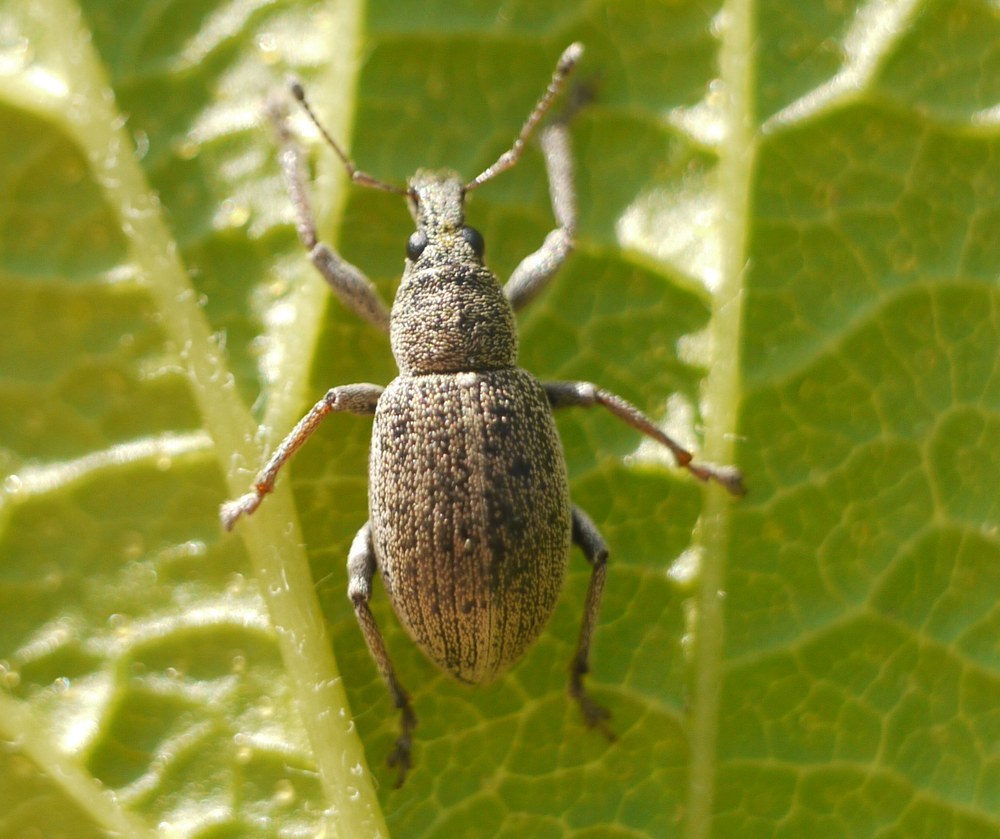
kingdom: Animalia
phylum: Arthropoda
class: Insecta
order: Coleoptera
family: Curculionidae
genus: Sciaphobus
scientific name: Sciaphobus squalidus
